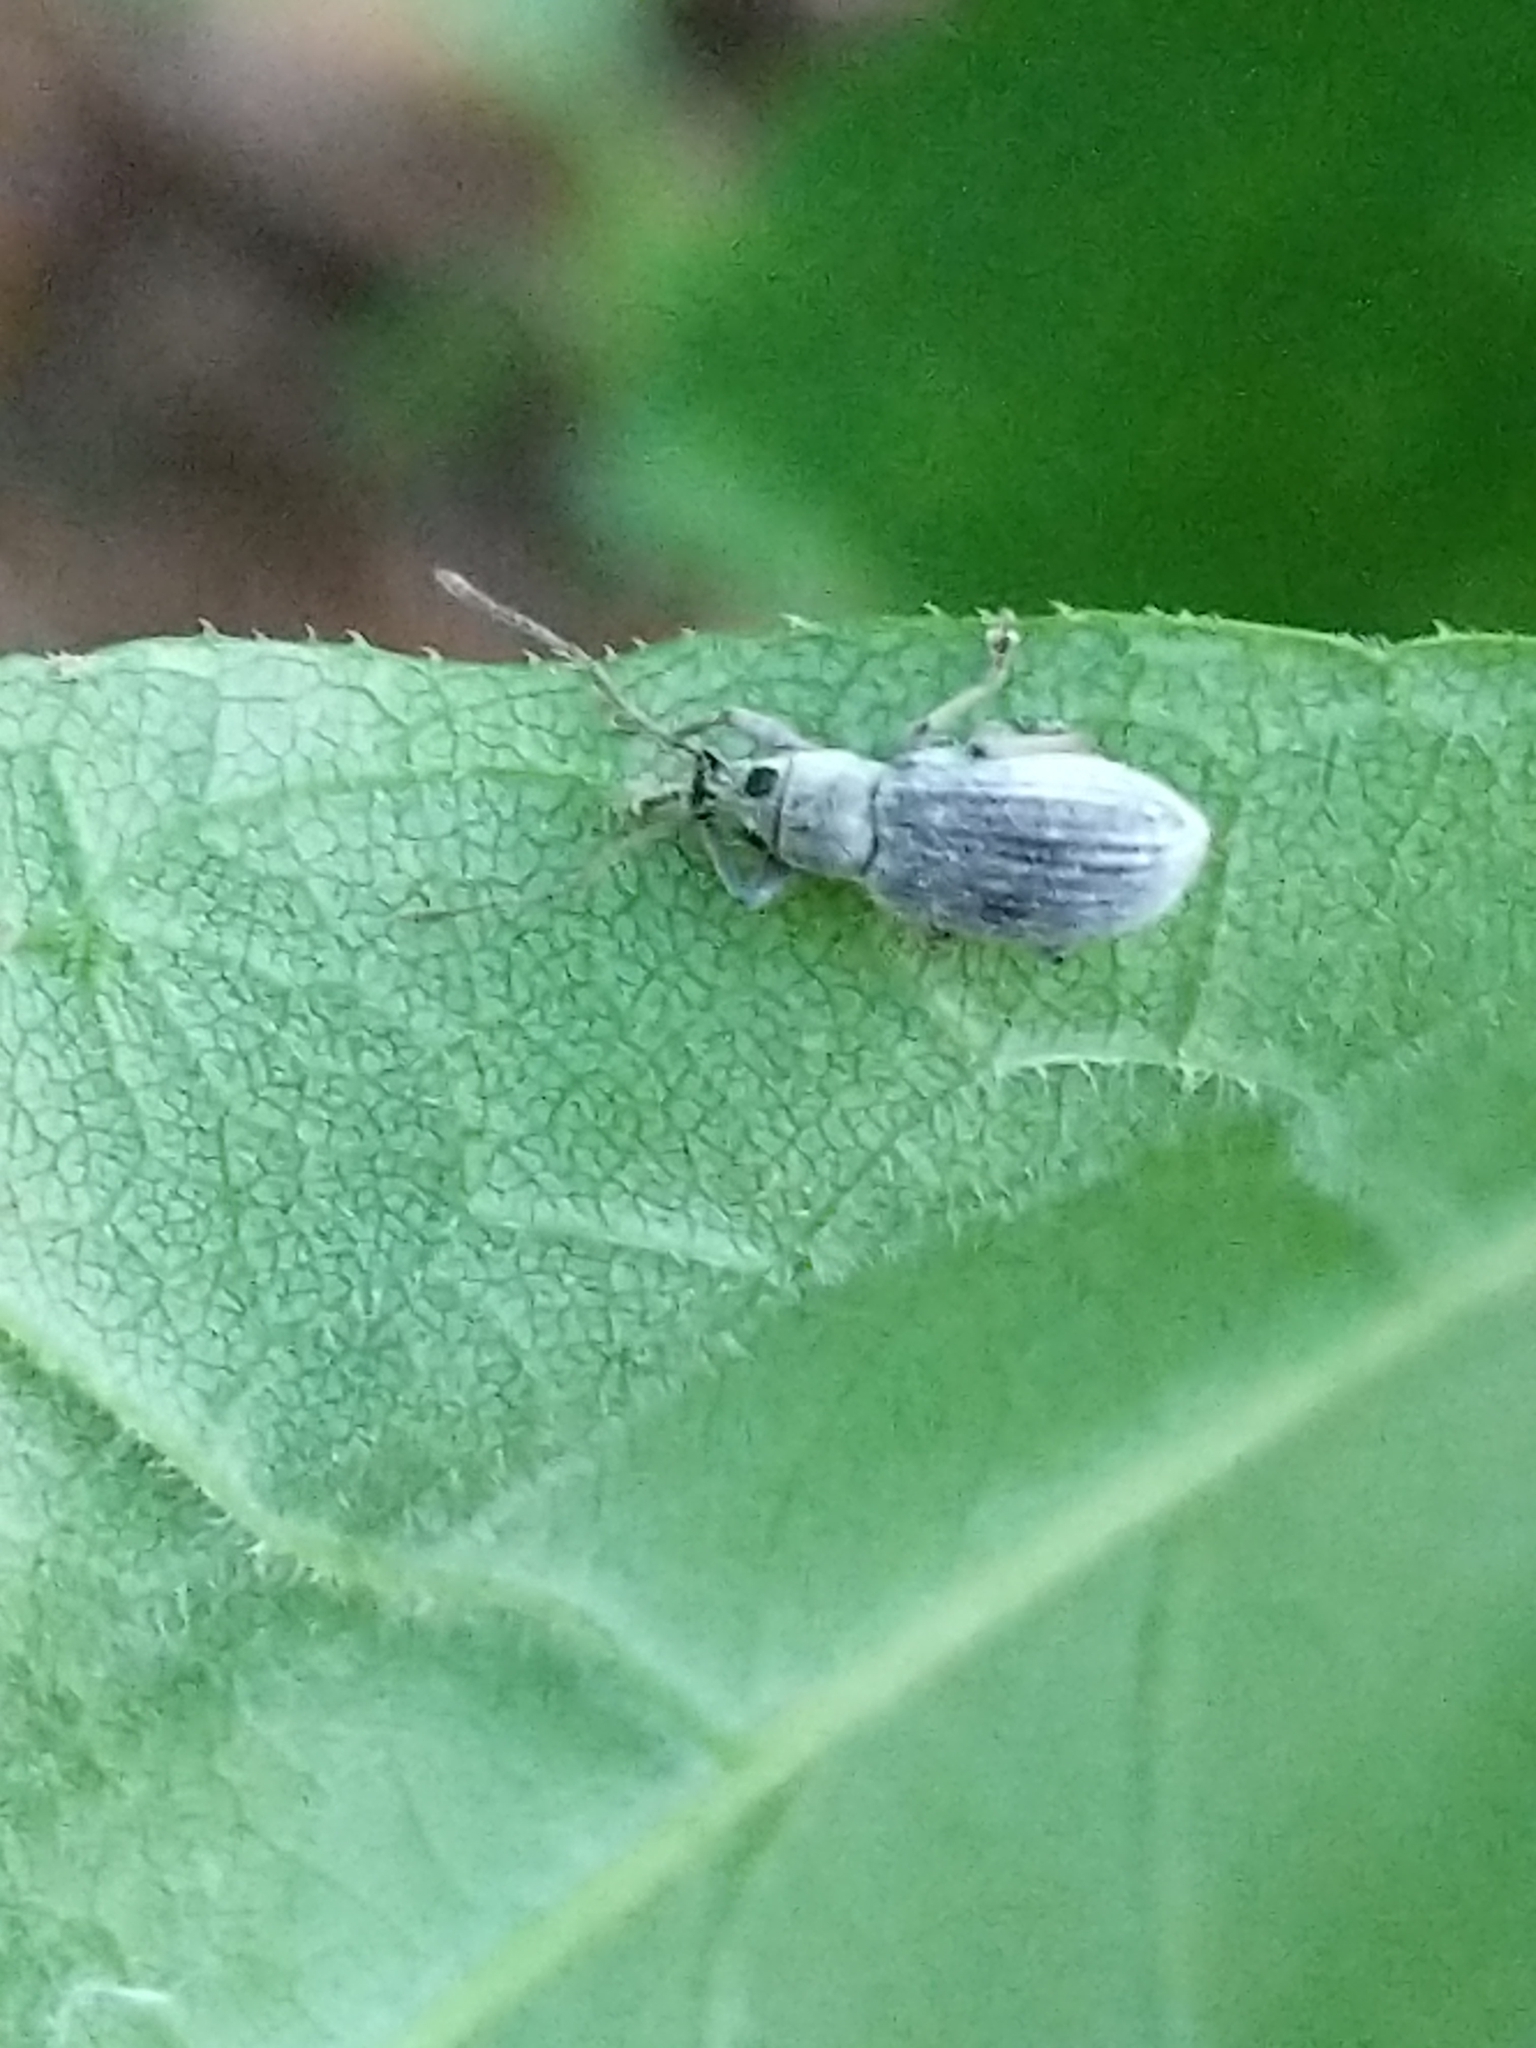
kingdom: Animalia
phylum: Arthropoda
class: Insecta
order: Coleoptera
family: Curculionidae
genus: Cyrtepistomus
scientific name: Cyrtepistomus castaneus
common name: Weevil
